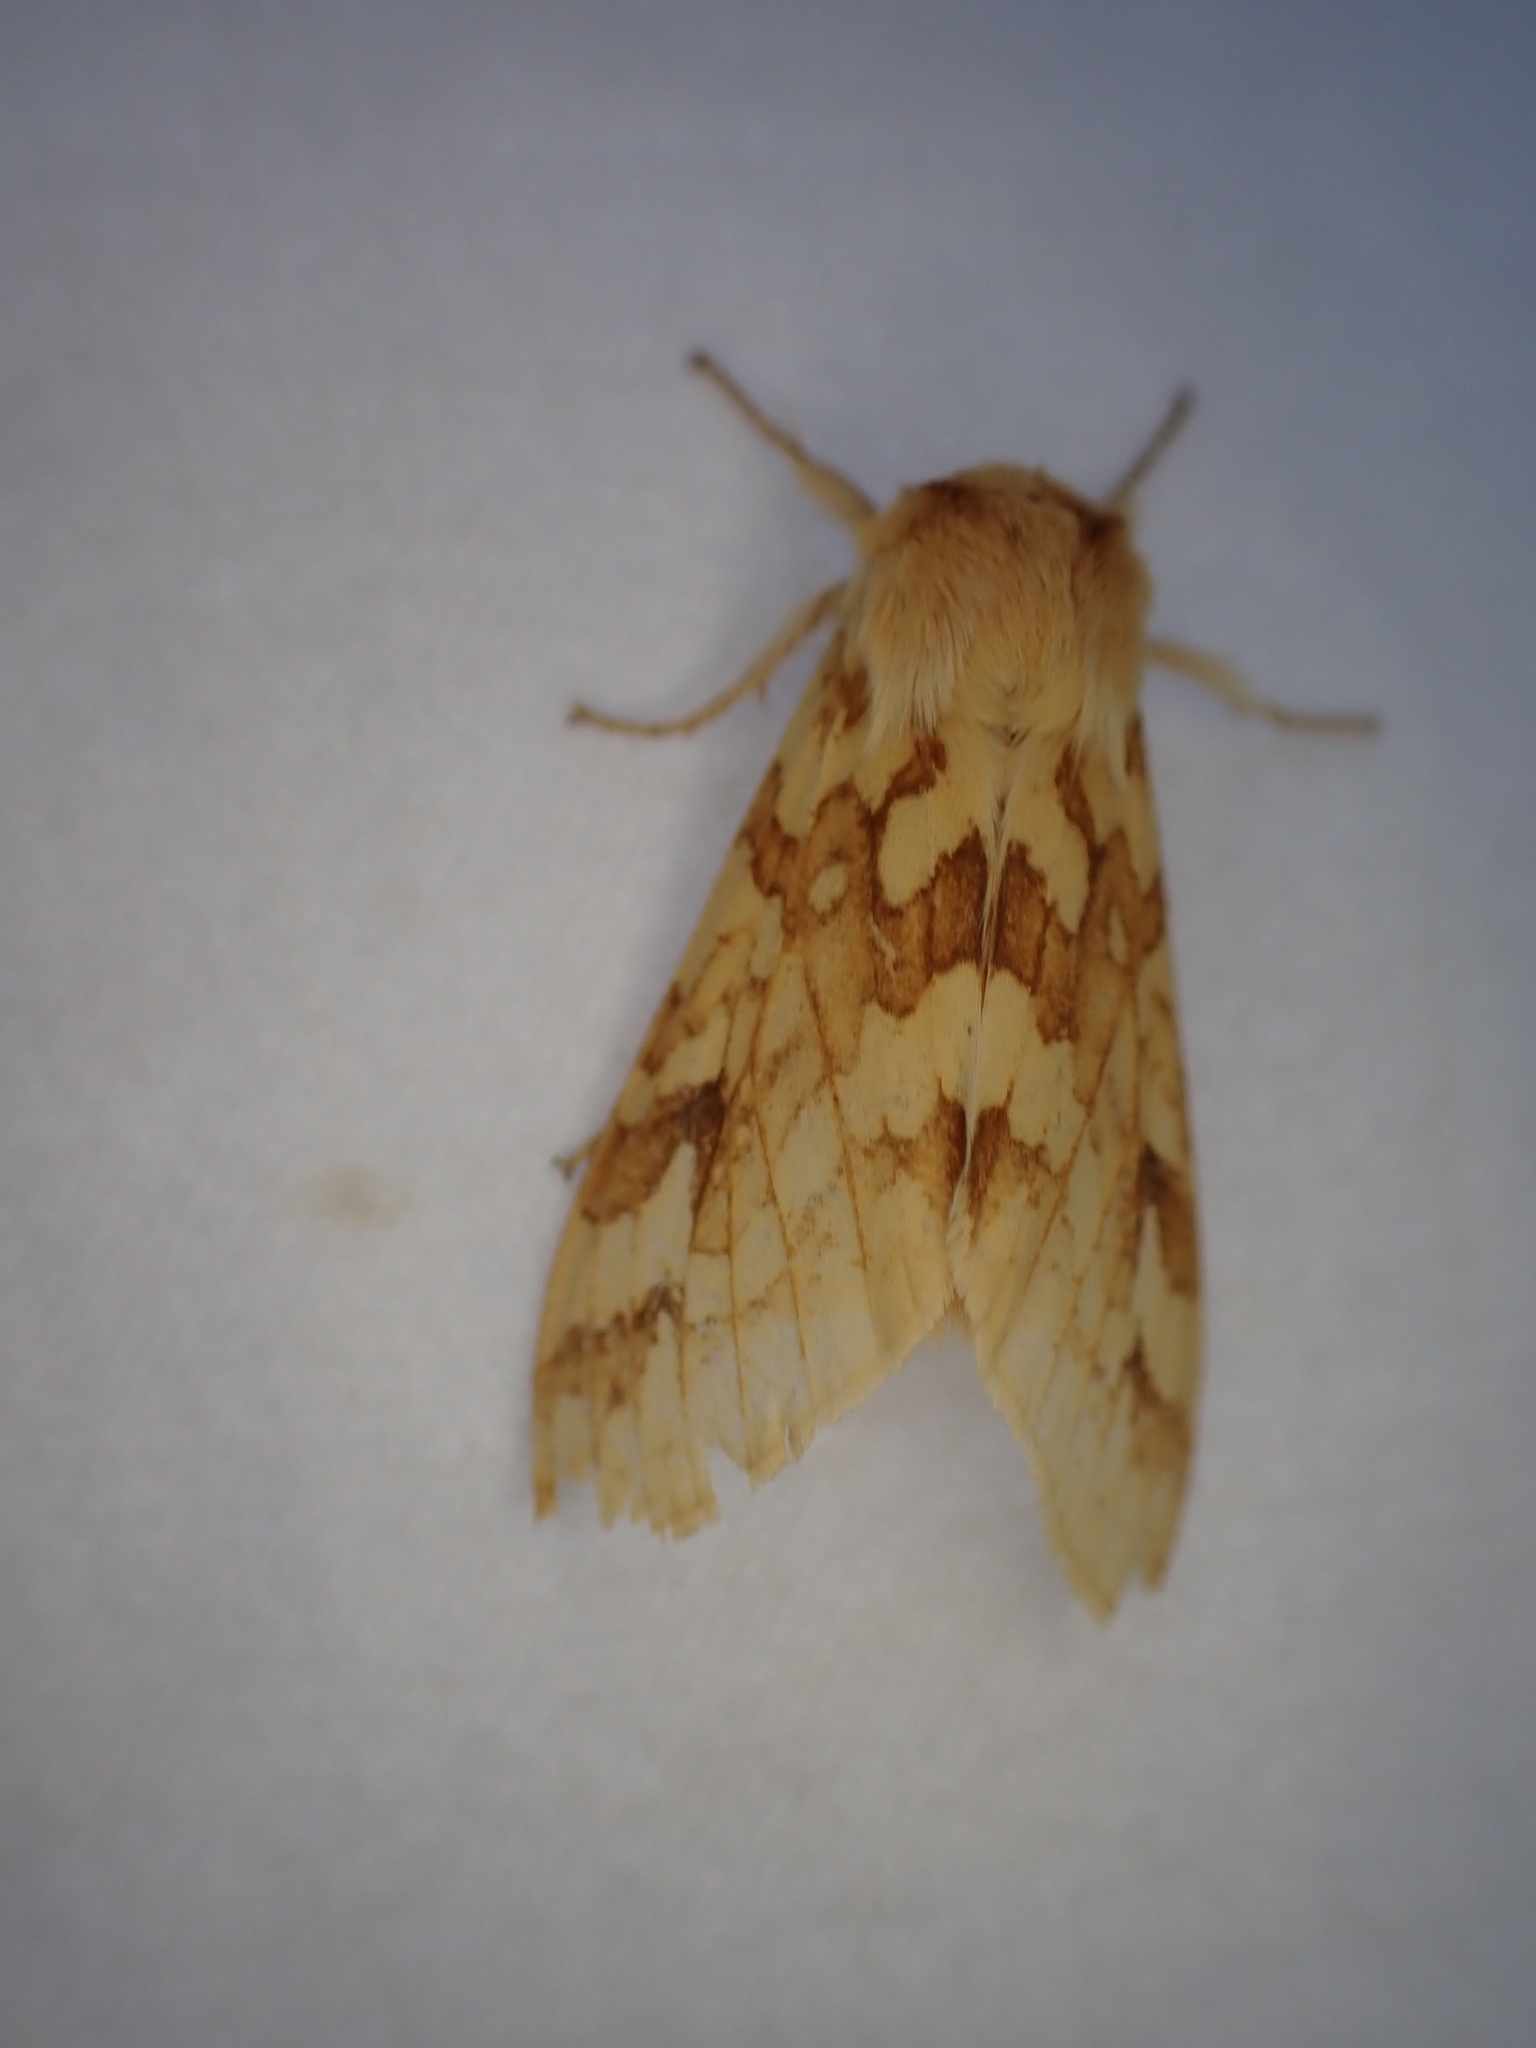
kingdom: Animalia
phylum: Arthropoda
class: Insecta
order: Lepidoptera
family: Erebidae
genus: Lophocampa
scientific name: Lophocampa maculata
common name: Spotted tussock moth
